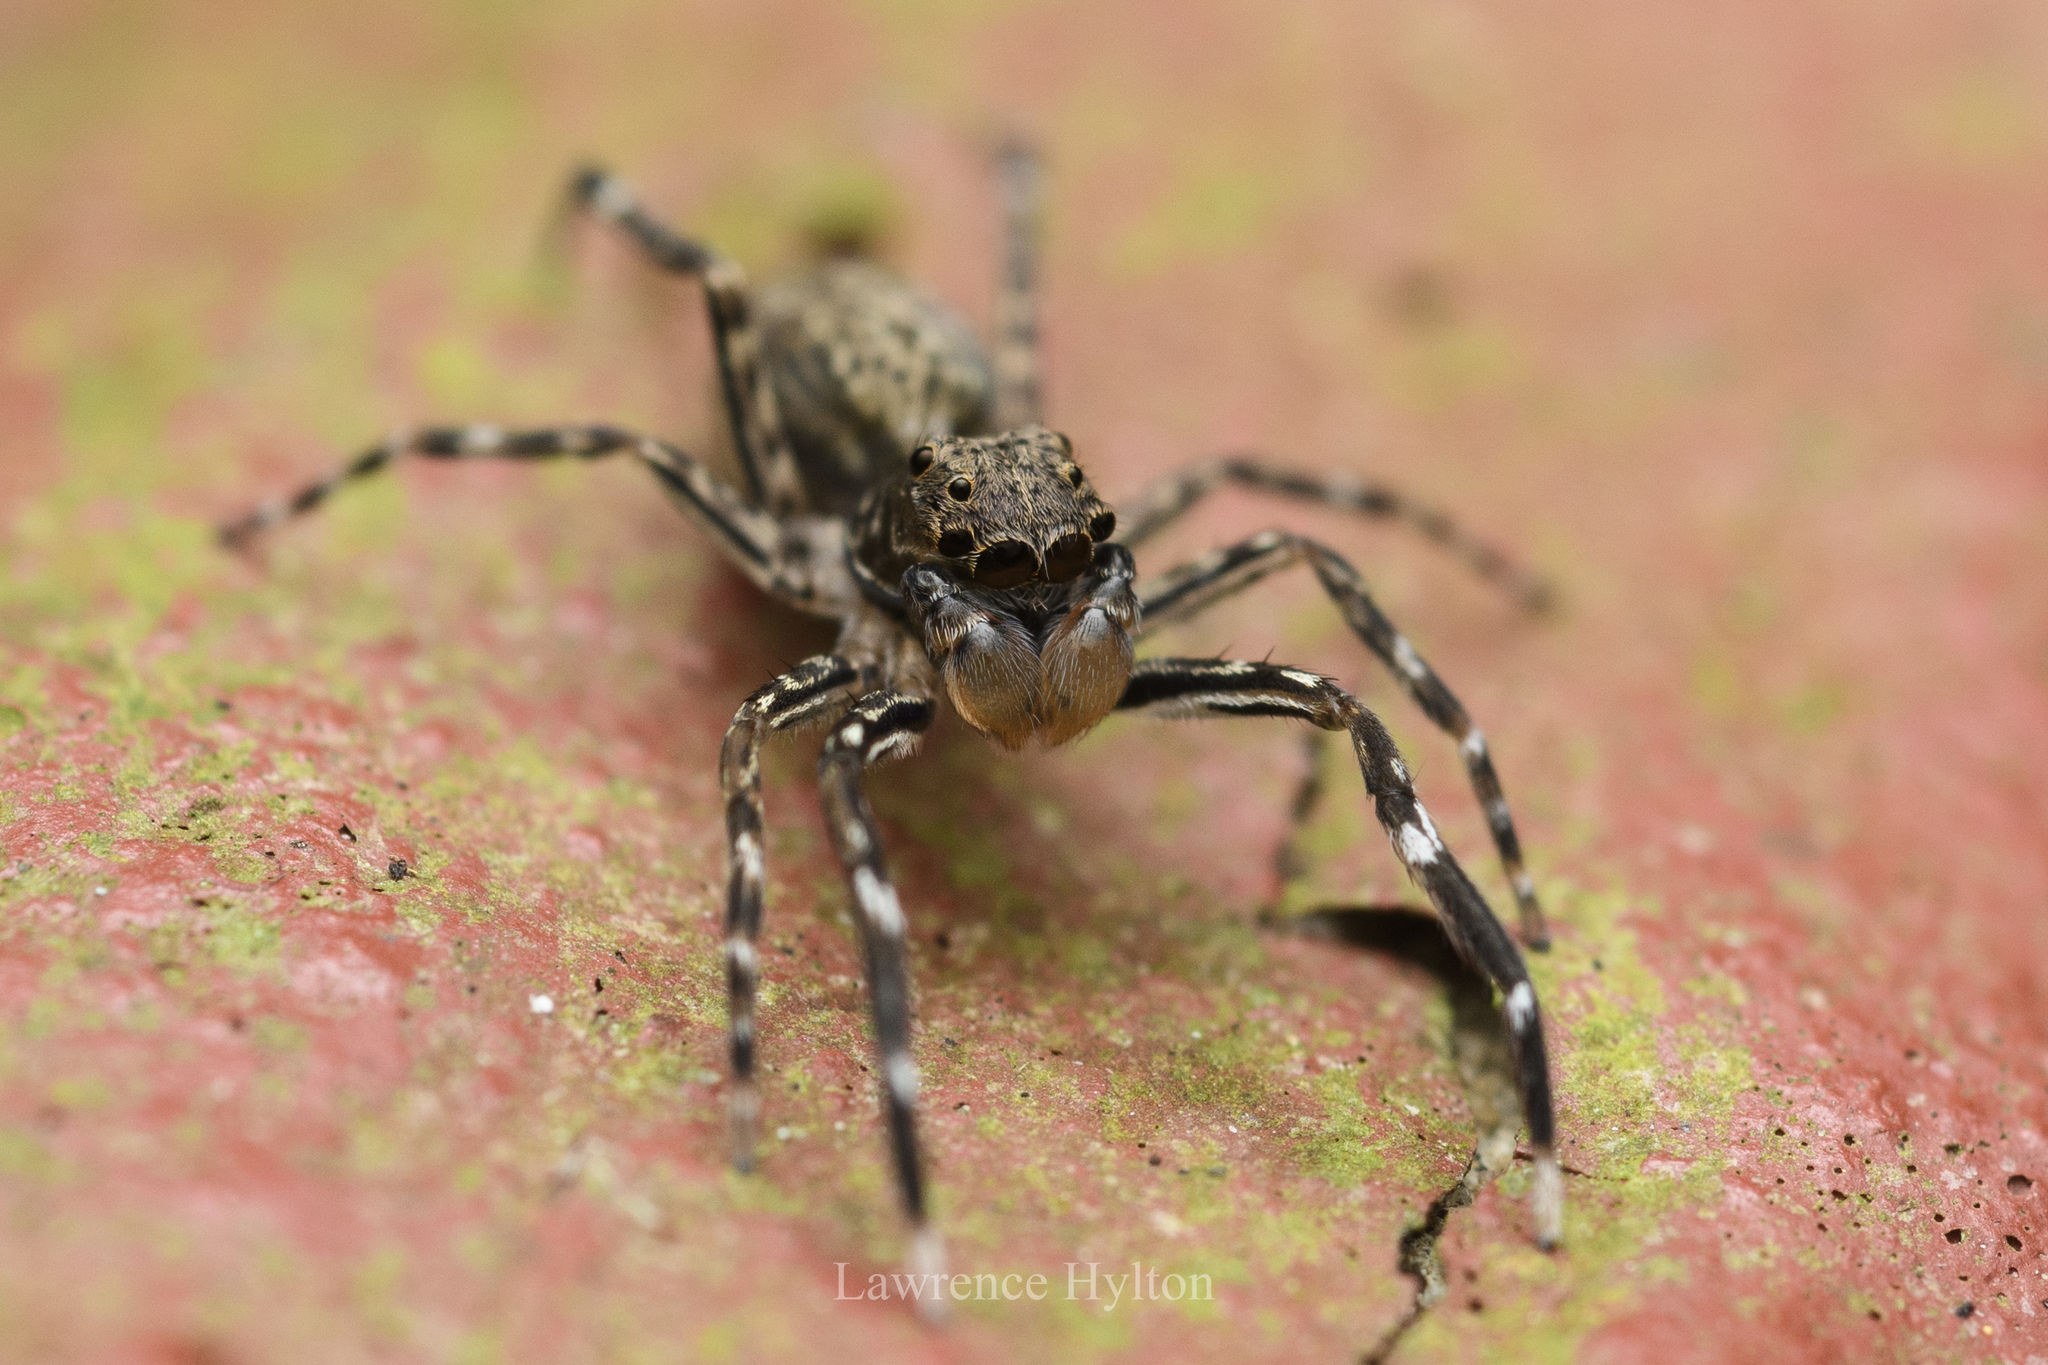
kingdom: Animalia
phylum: Arthropoda
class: Arachnida
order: Araneae
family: Salticidae
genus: Spartaeus
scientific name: Spartaeus spinimanus
